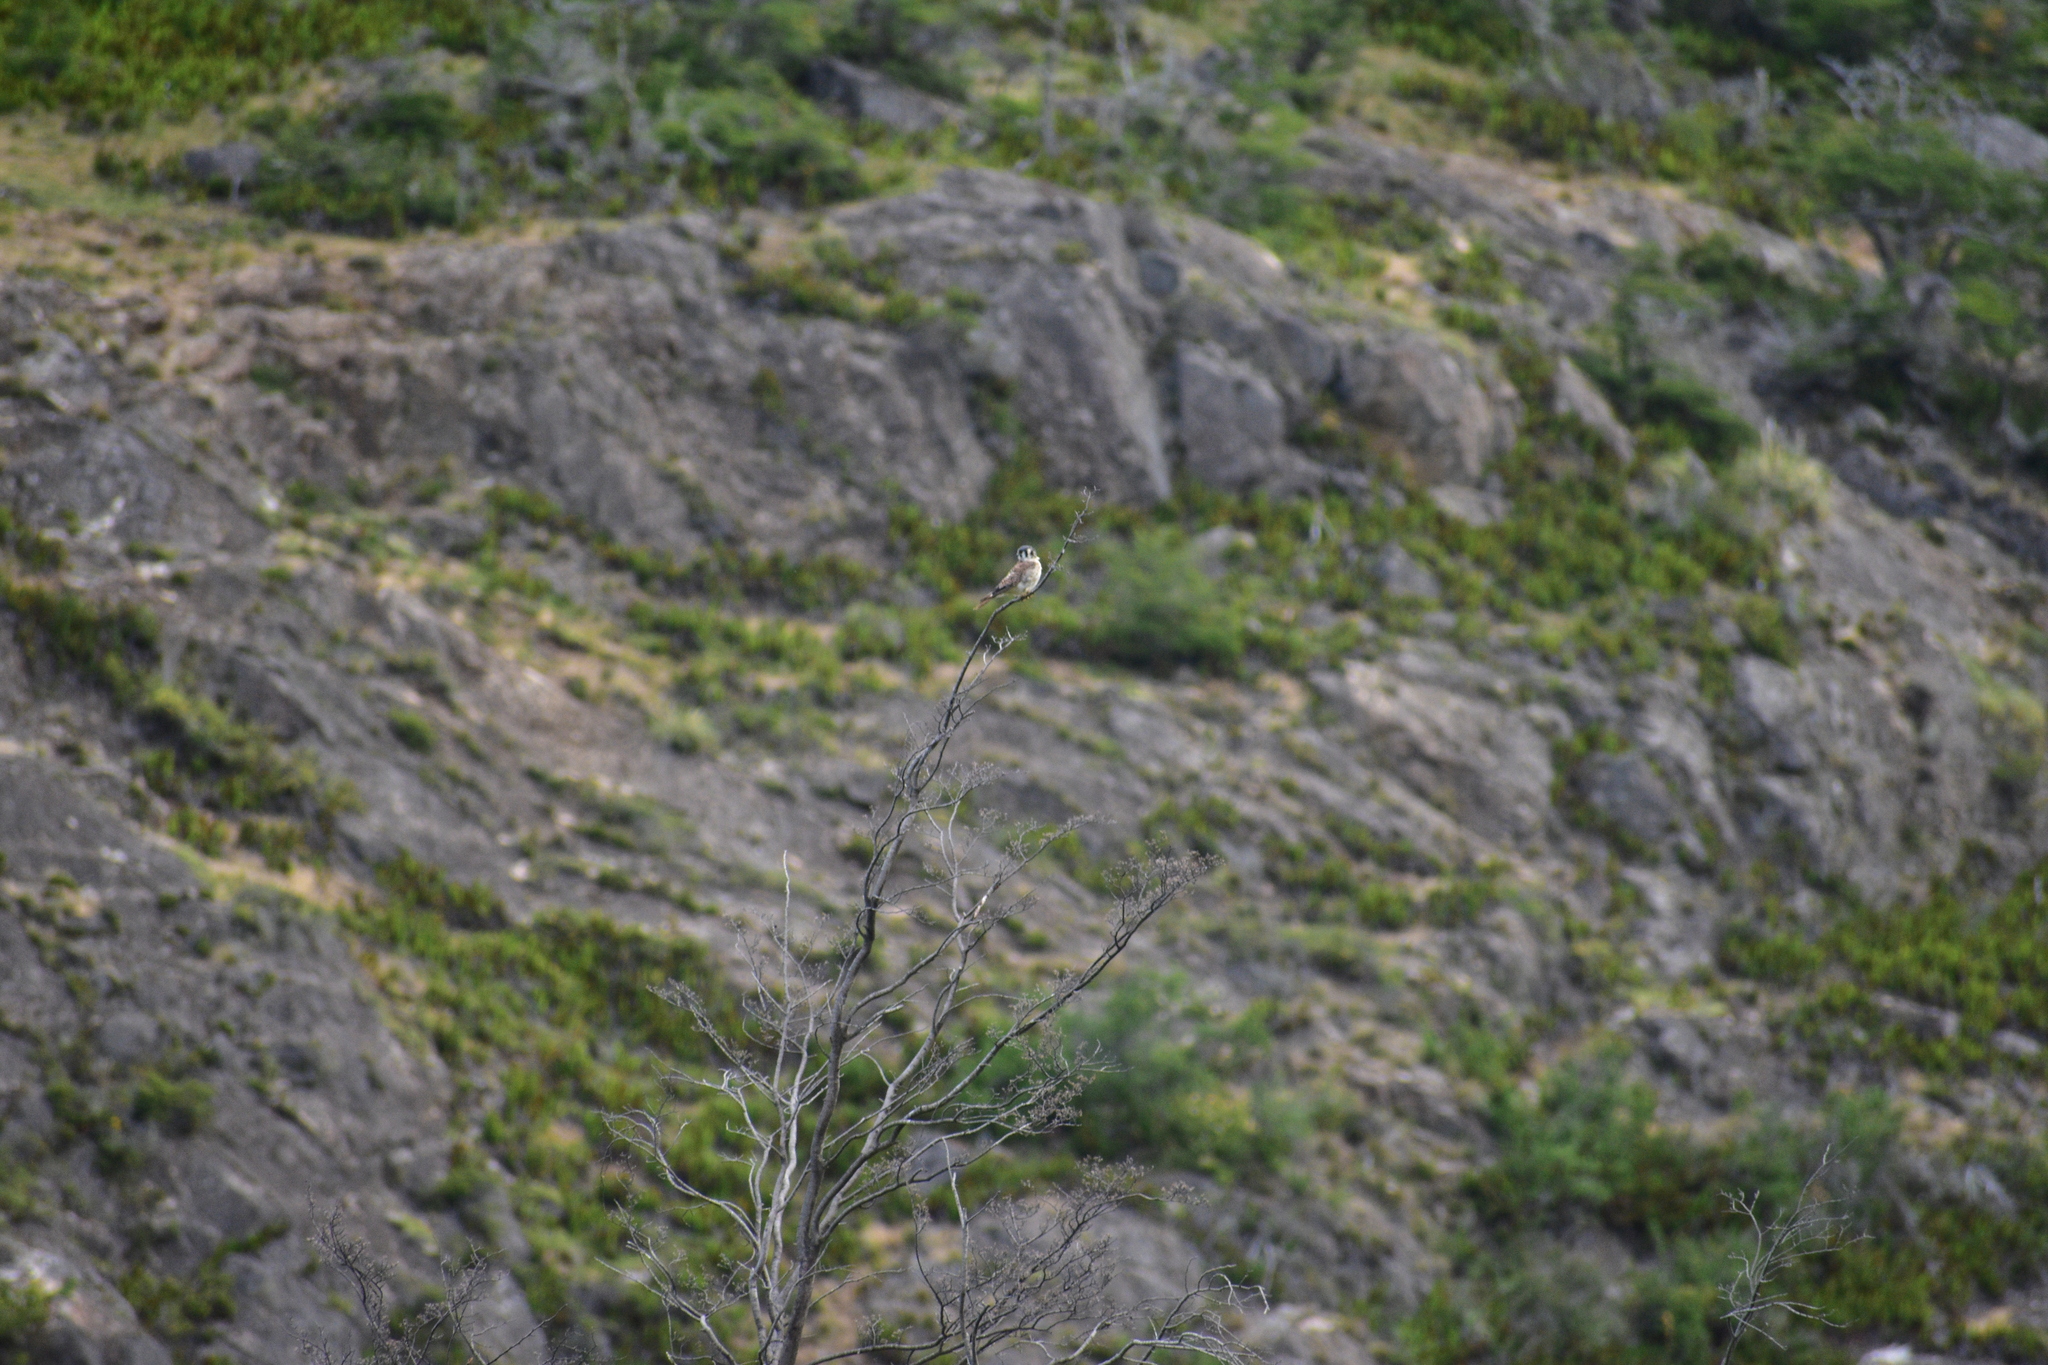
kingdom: Animalia
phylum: Chordata
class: Aves
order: Falconiformes
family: Falconidae
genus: Falco
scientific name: Falco sparverius
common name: American kestrel
